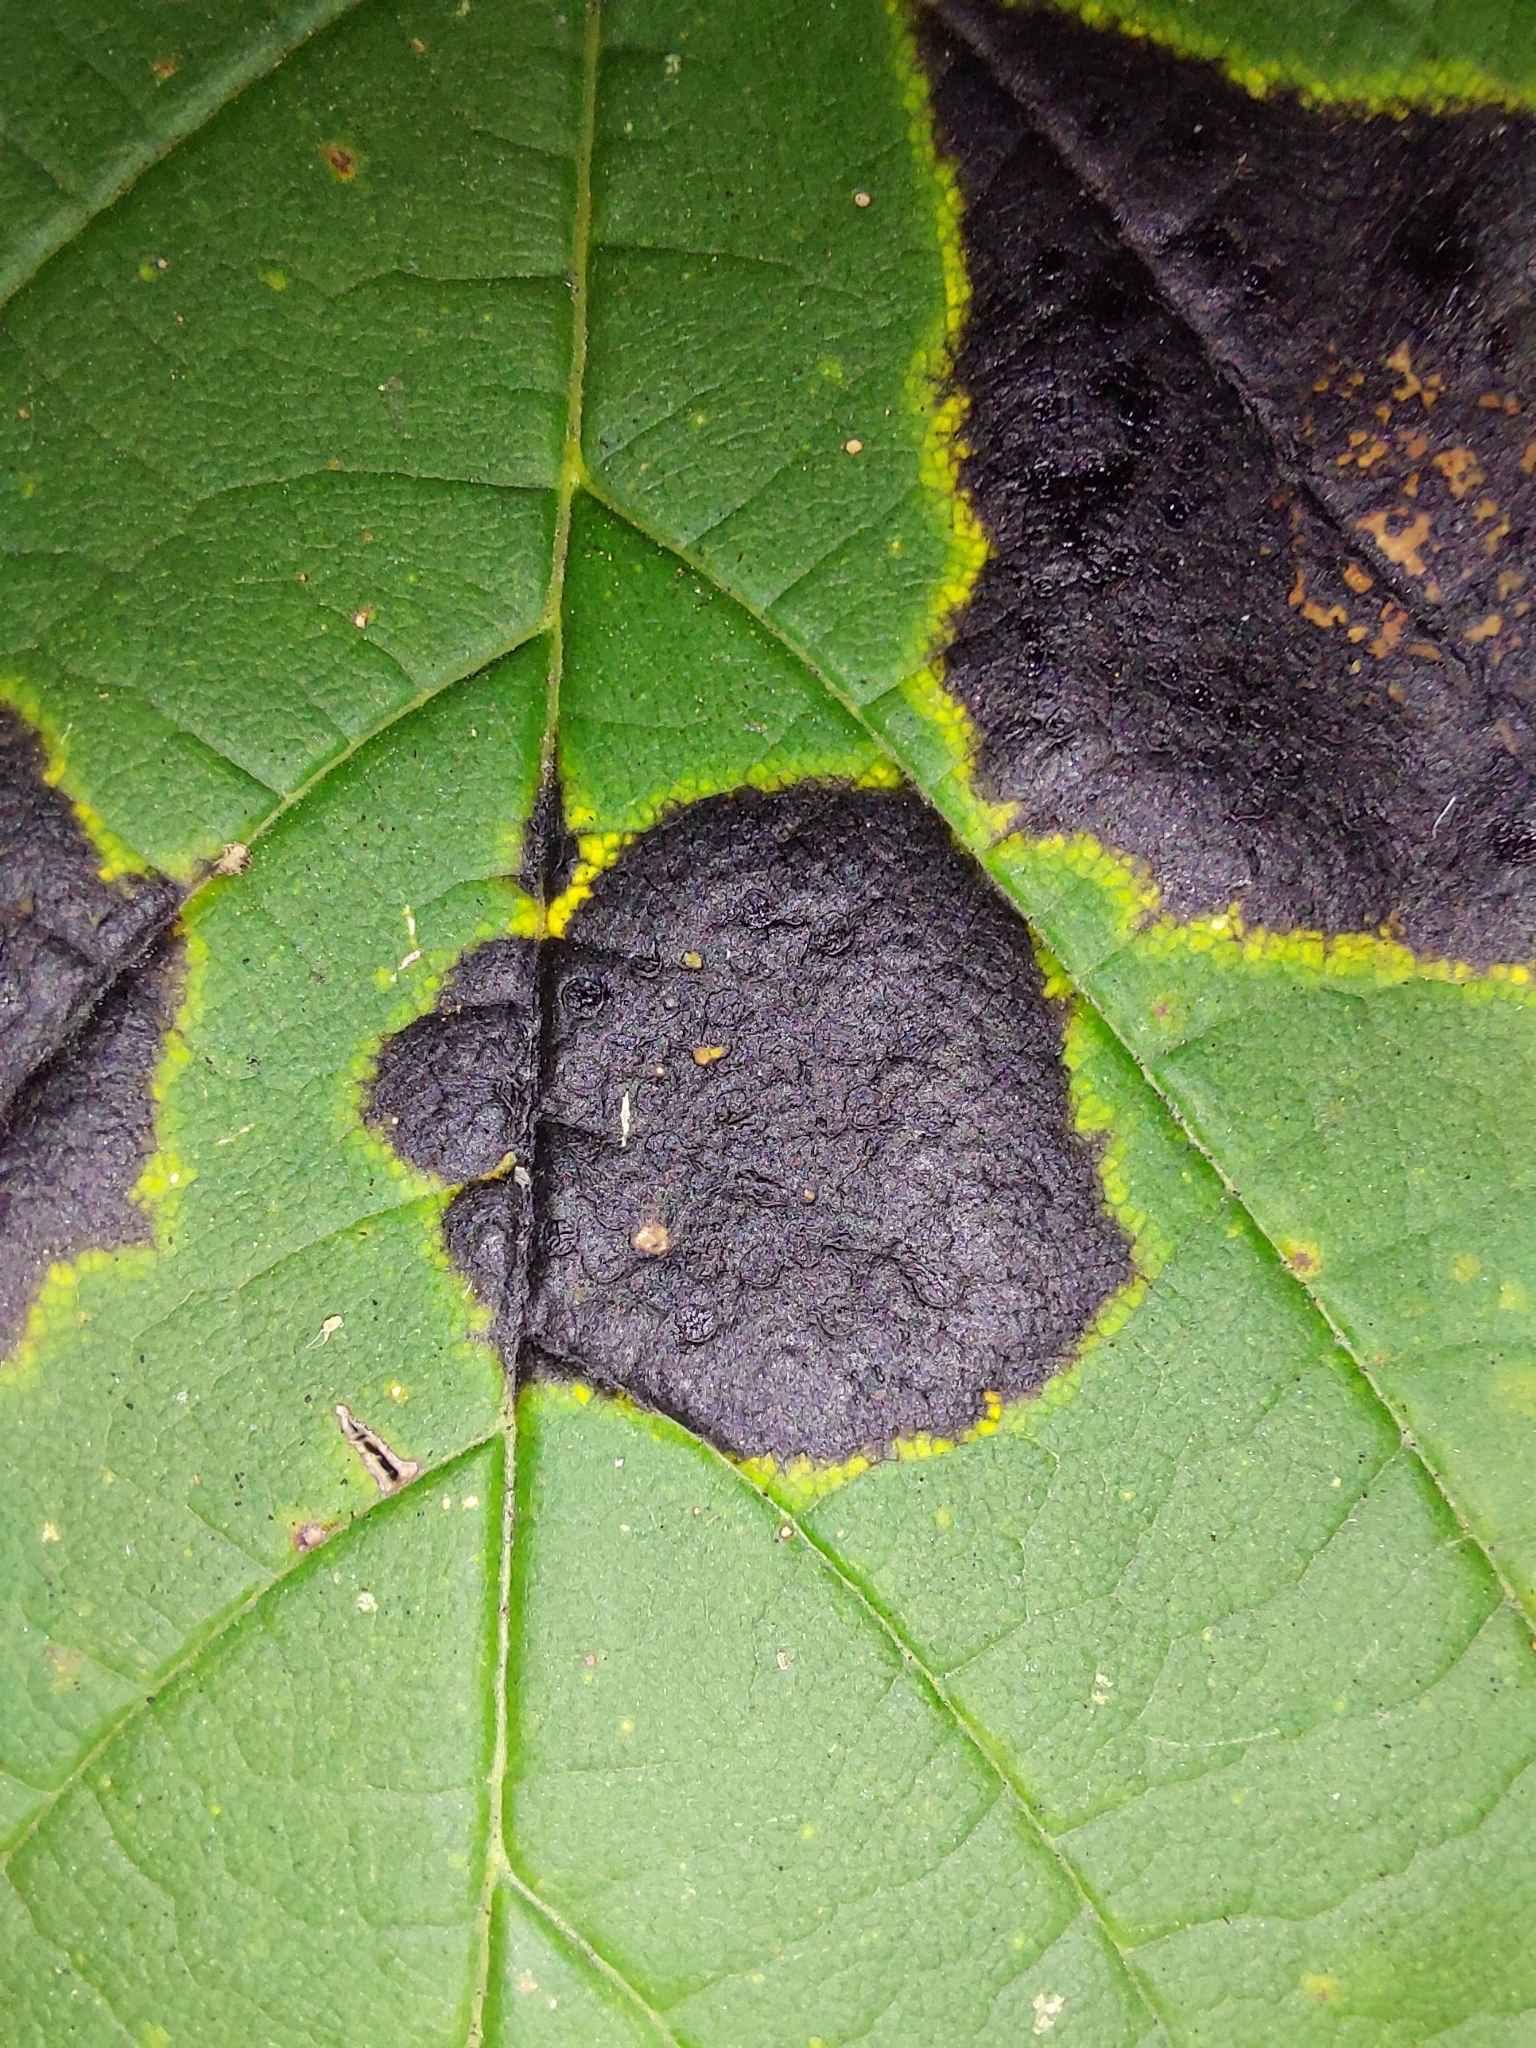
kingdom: Fungi
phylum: Ascomycota
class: Leotiomycetes
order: Rhytismatales
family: Rhytismataceae
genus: Rhytisma
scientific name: Rhytisma acerinum
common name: European tar spot
